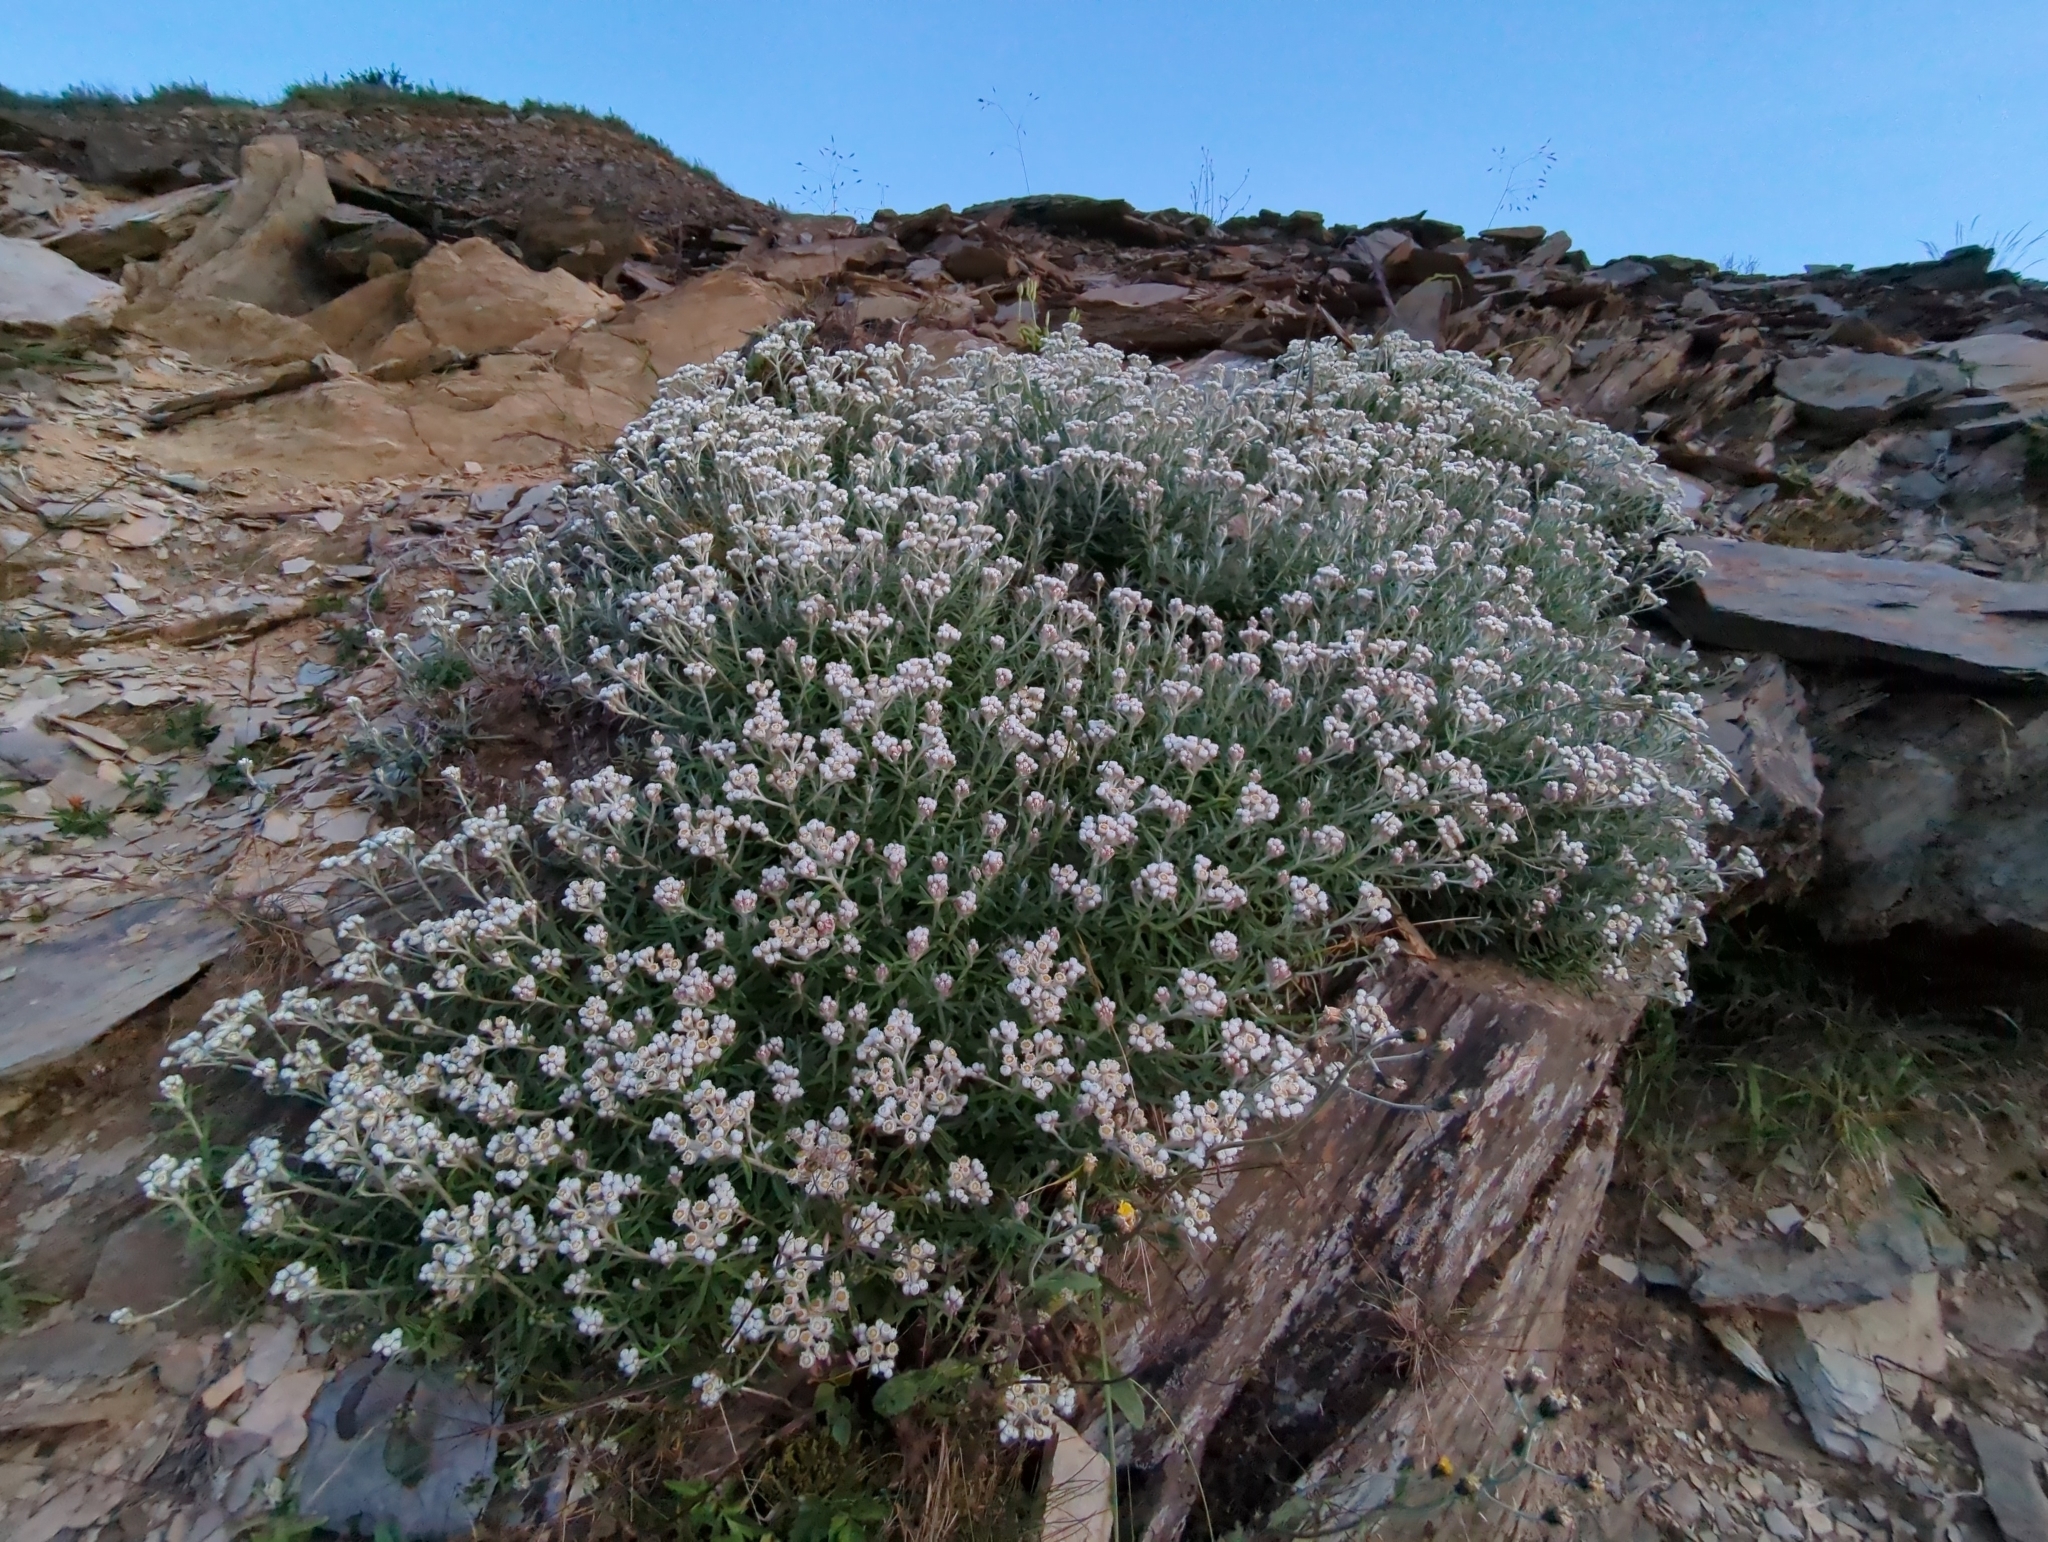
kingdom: Plantae
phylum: Tracheophyta
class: Magnoliopsida
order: Asterales
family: Asteraceae
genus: Anaphalis
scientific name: Anaphalis morrisonicola
